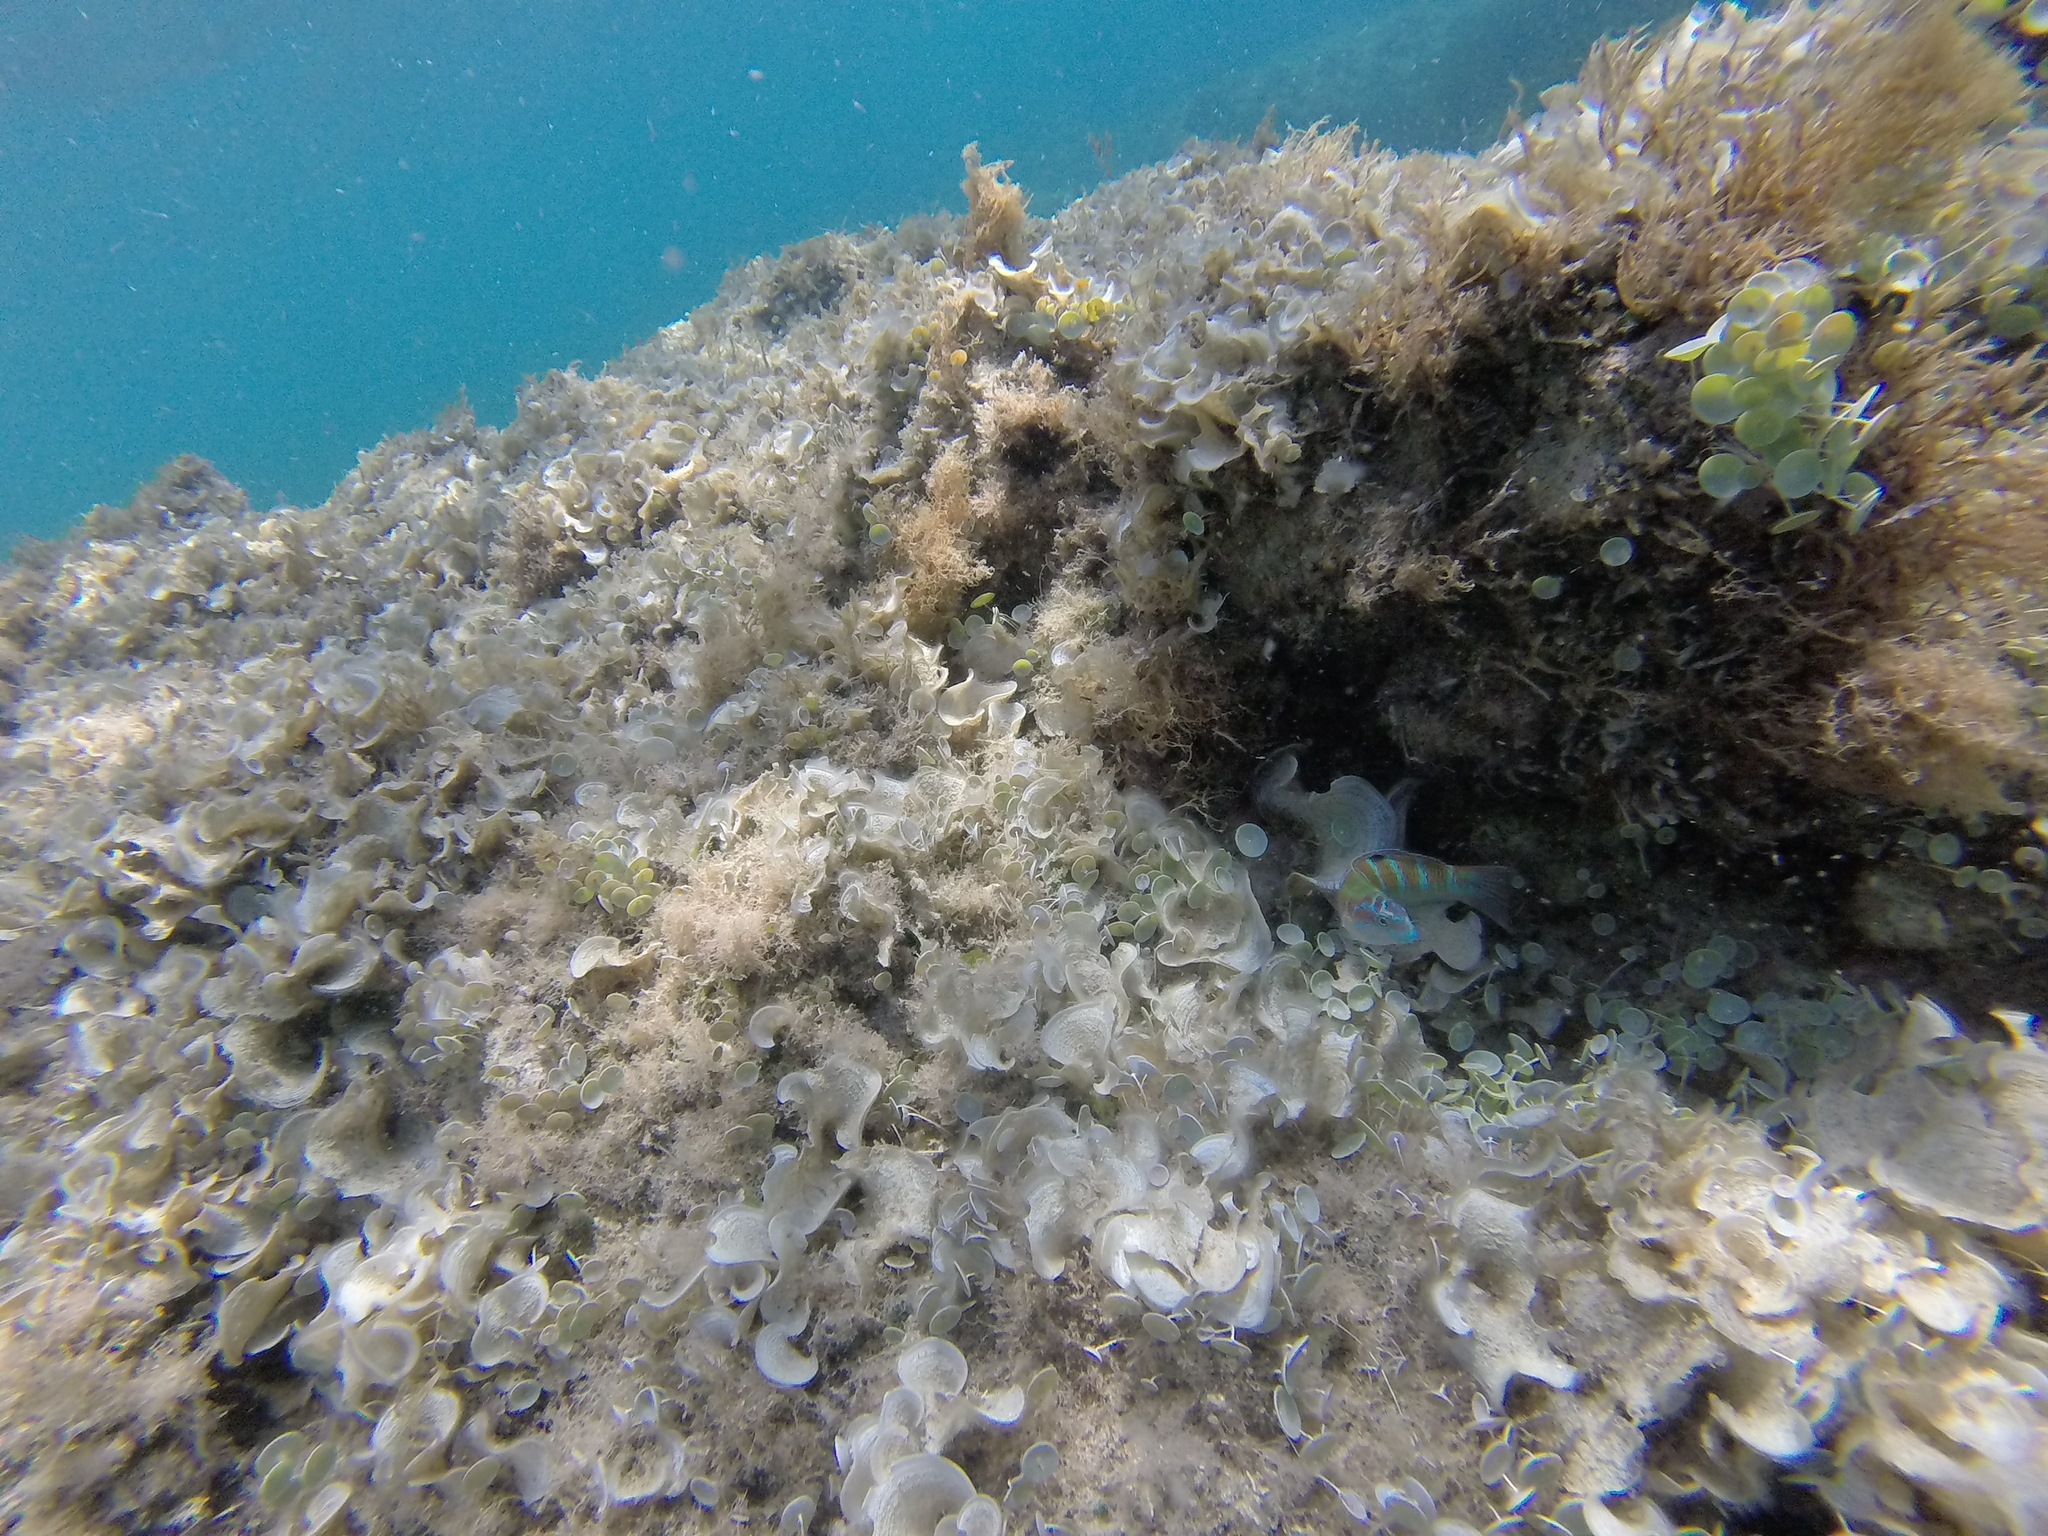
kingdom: Animalia
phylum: Chordata
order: Perciformes
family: Labridae
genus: Thalassoma
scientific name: Thalassoma pavo
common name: Ornate wrasse
